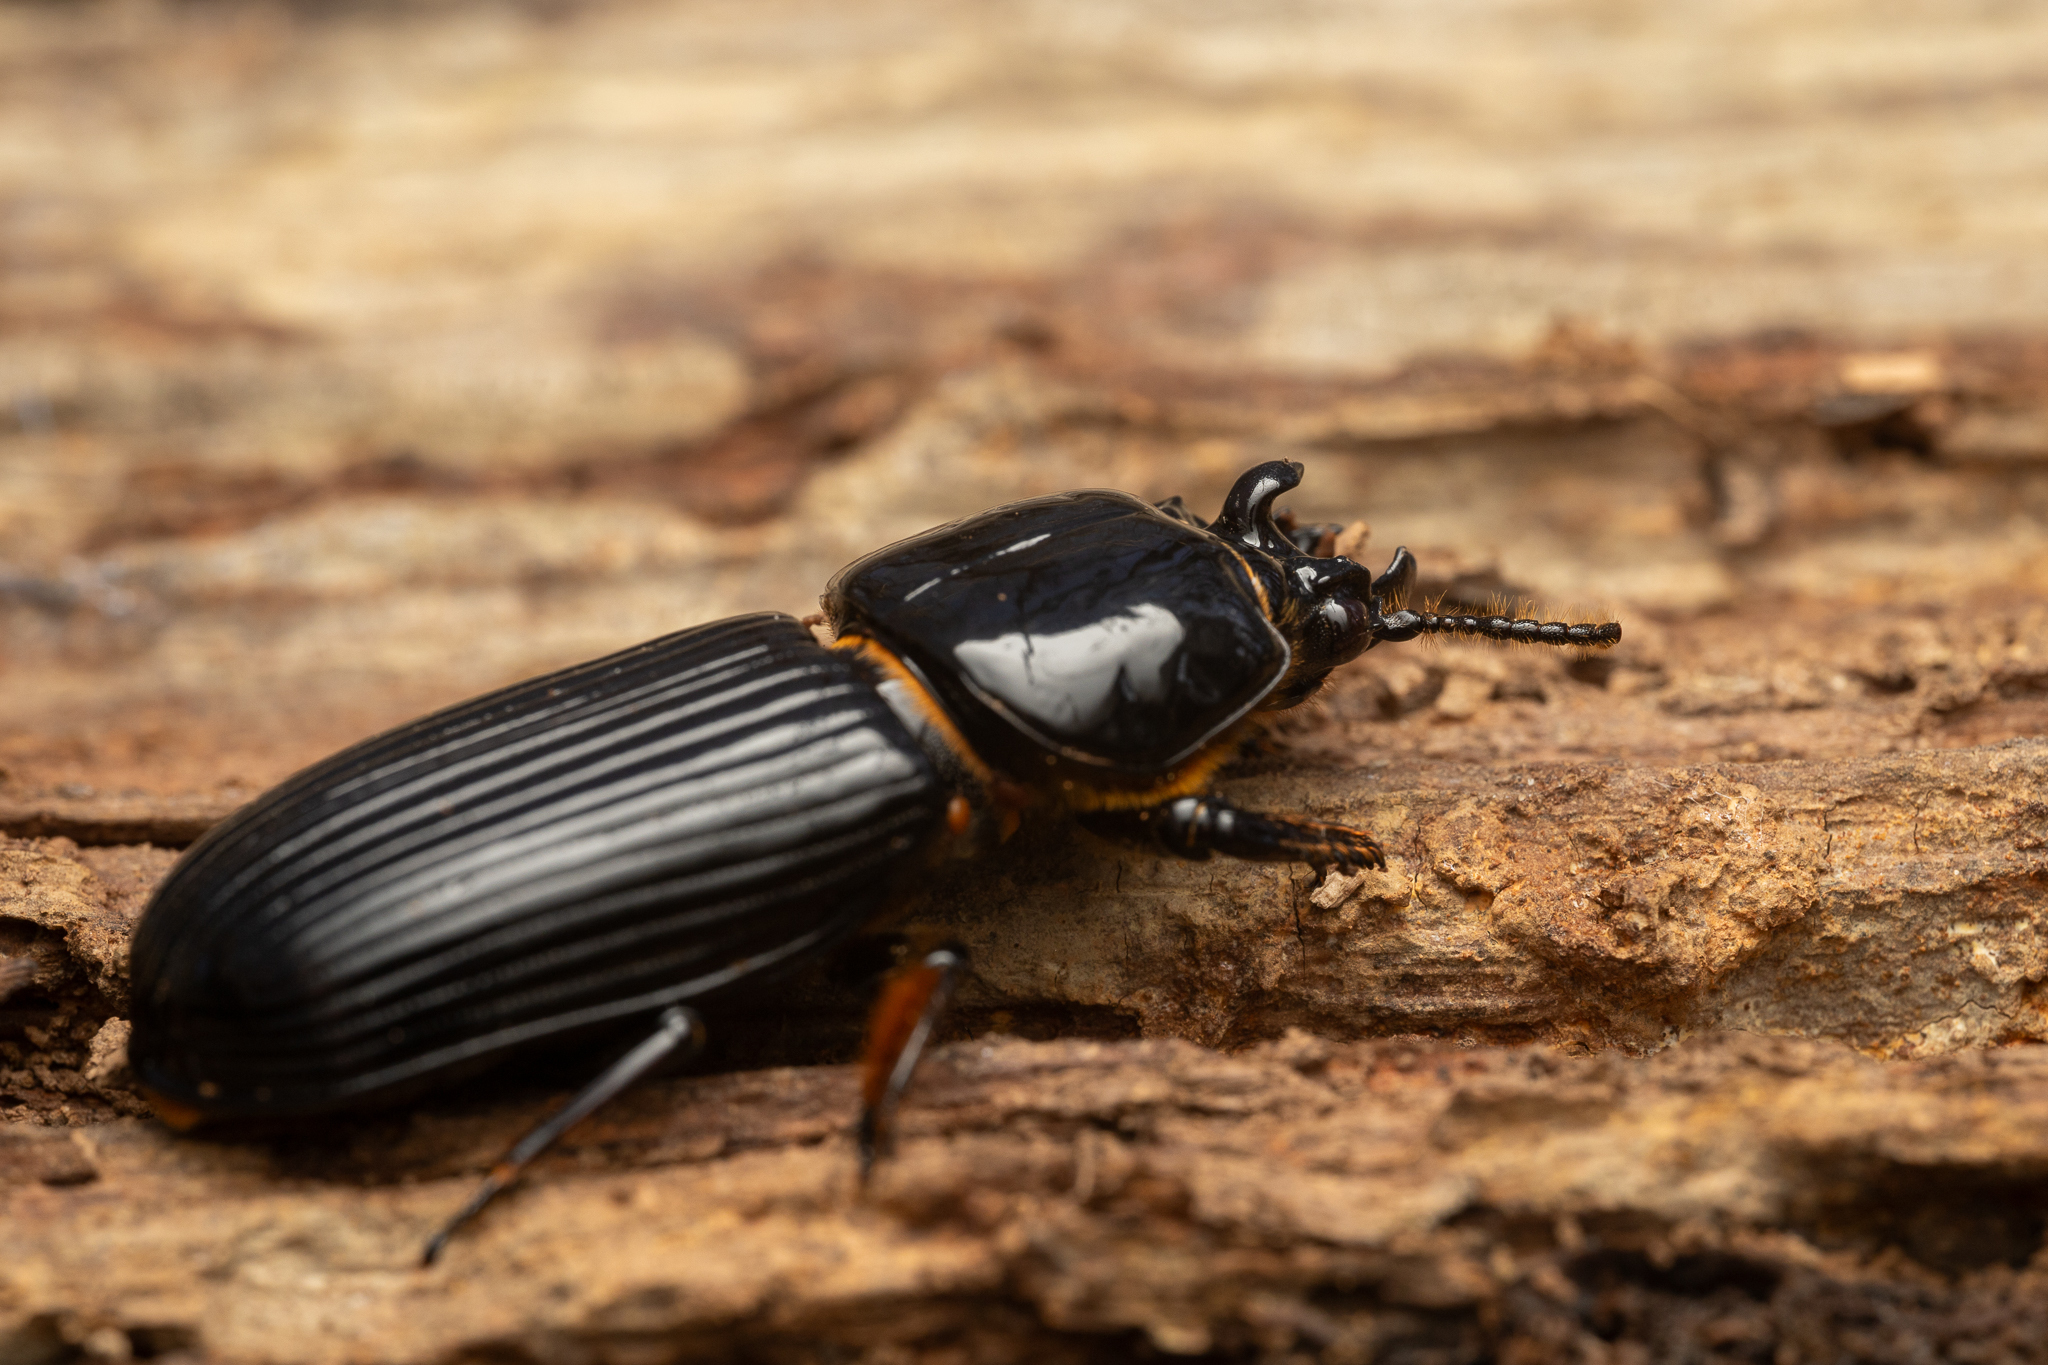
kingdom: Animalia
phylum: Arthropoda
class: Insecta
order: Coleoptera
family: Passalidae
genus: Odontotaenius
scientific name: Odontotaenius disjunctus
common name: Patent leather beetle
